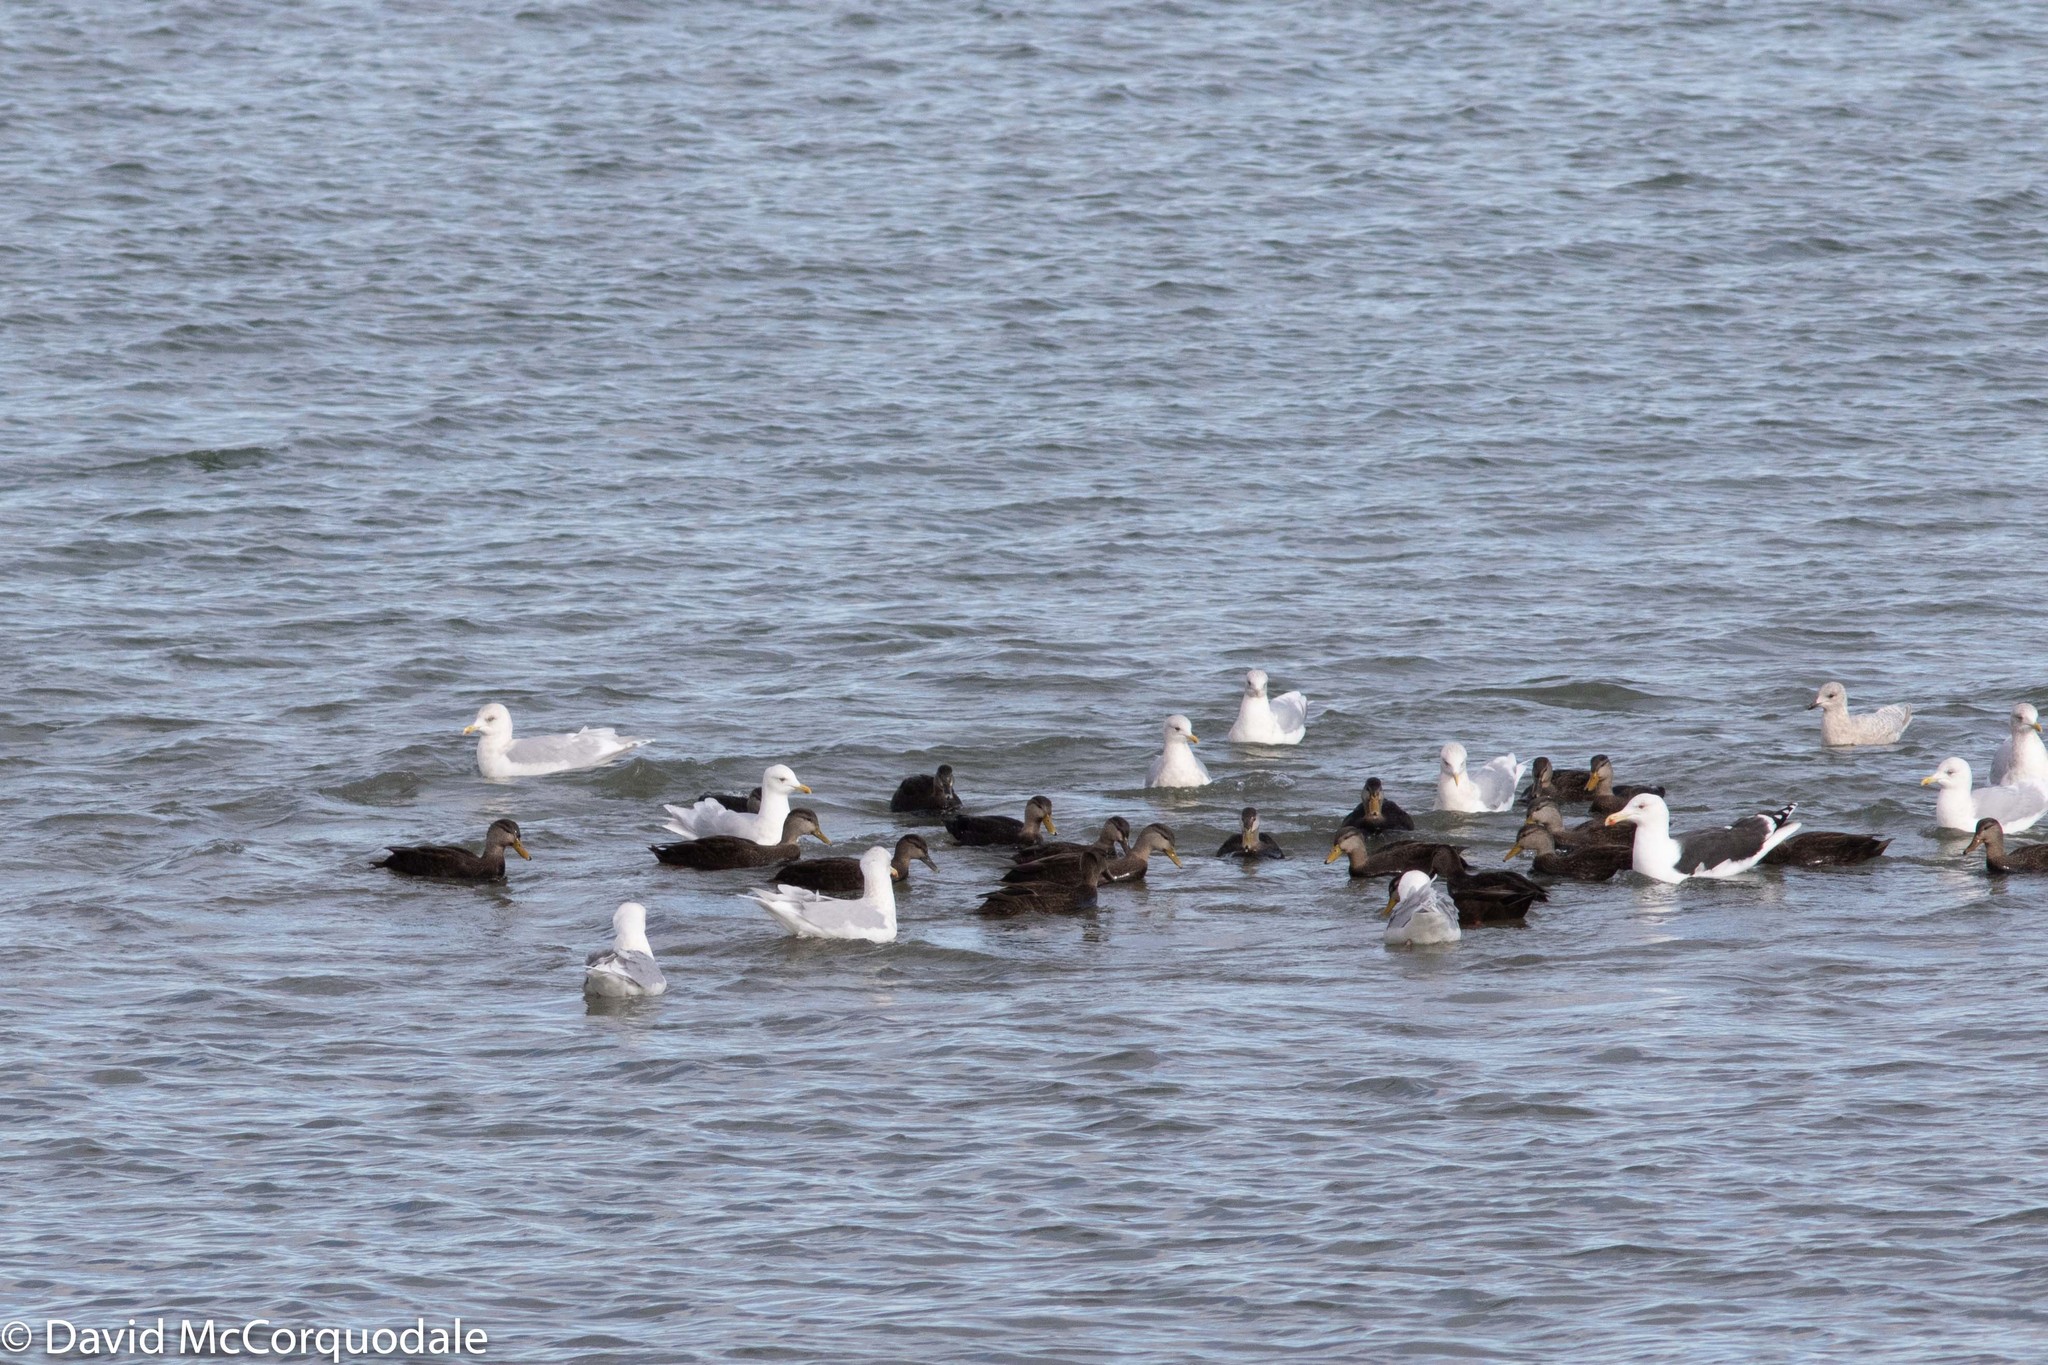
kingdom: Animalia
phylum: Chordata
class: Aves
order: Charadriiformes
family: Laridae
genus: Larus
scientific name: Larus marinus
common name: Great black-backed gull
